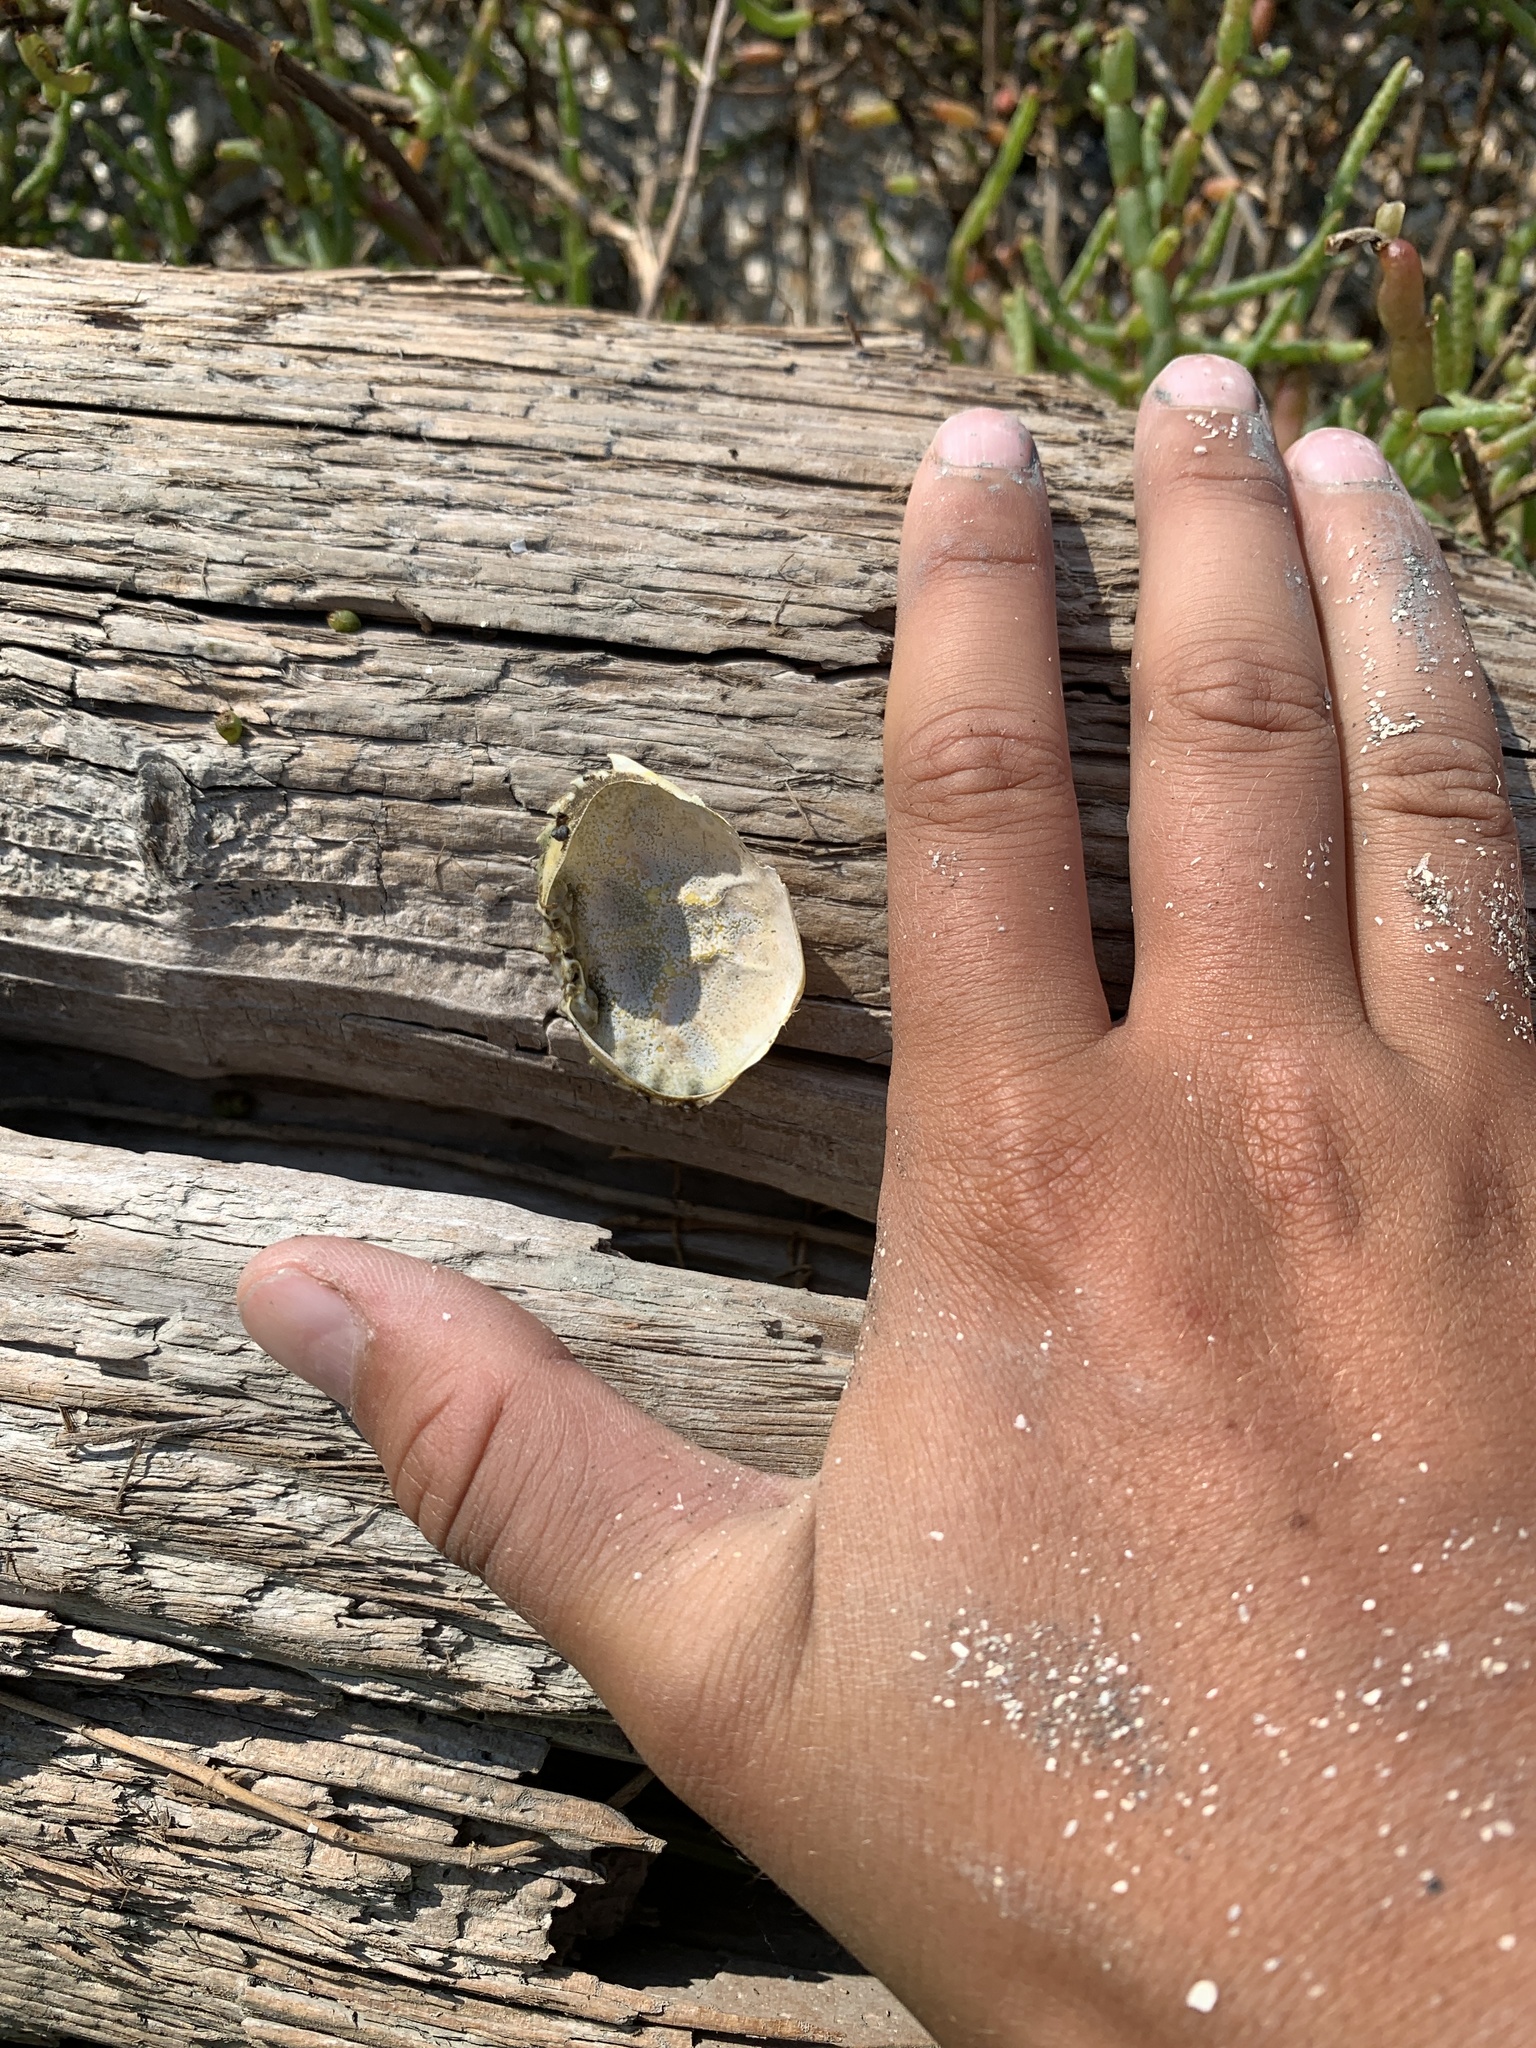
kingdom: Animalia
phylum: Arthropoda
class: Malacostraca
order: Decapoda
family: Carcinidae
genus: Carcinus
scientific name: Carcinus maenas
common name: European green crab
